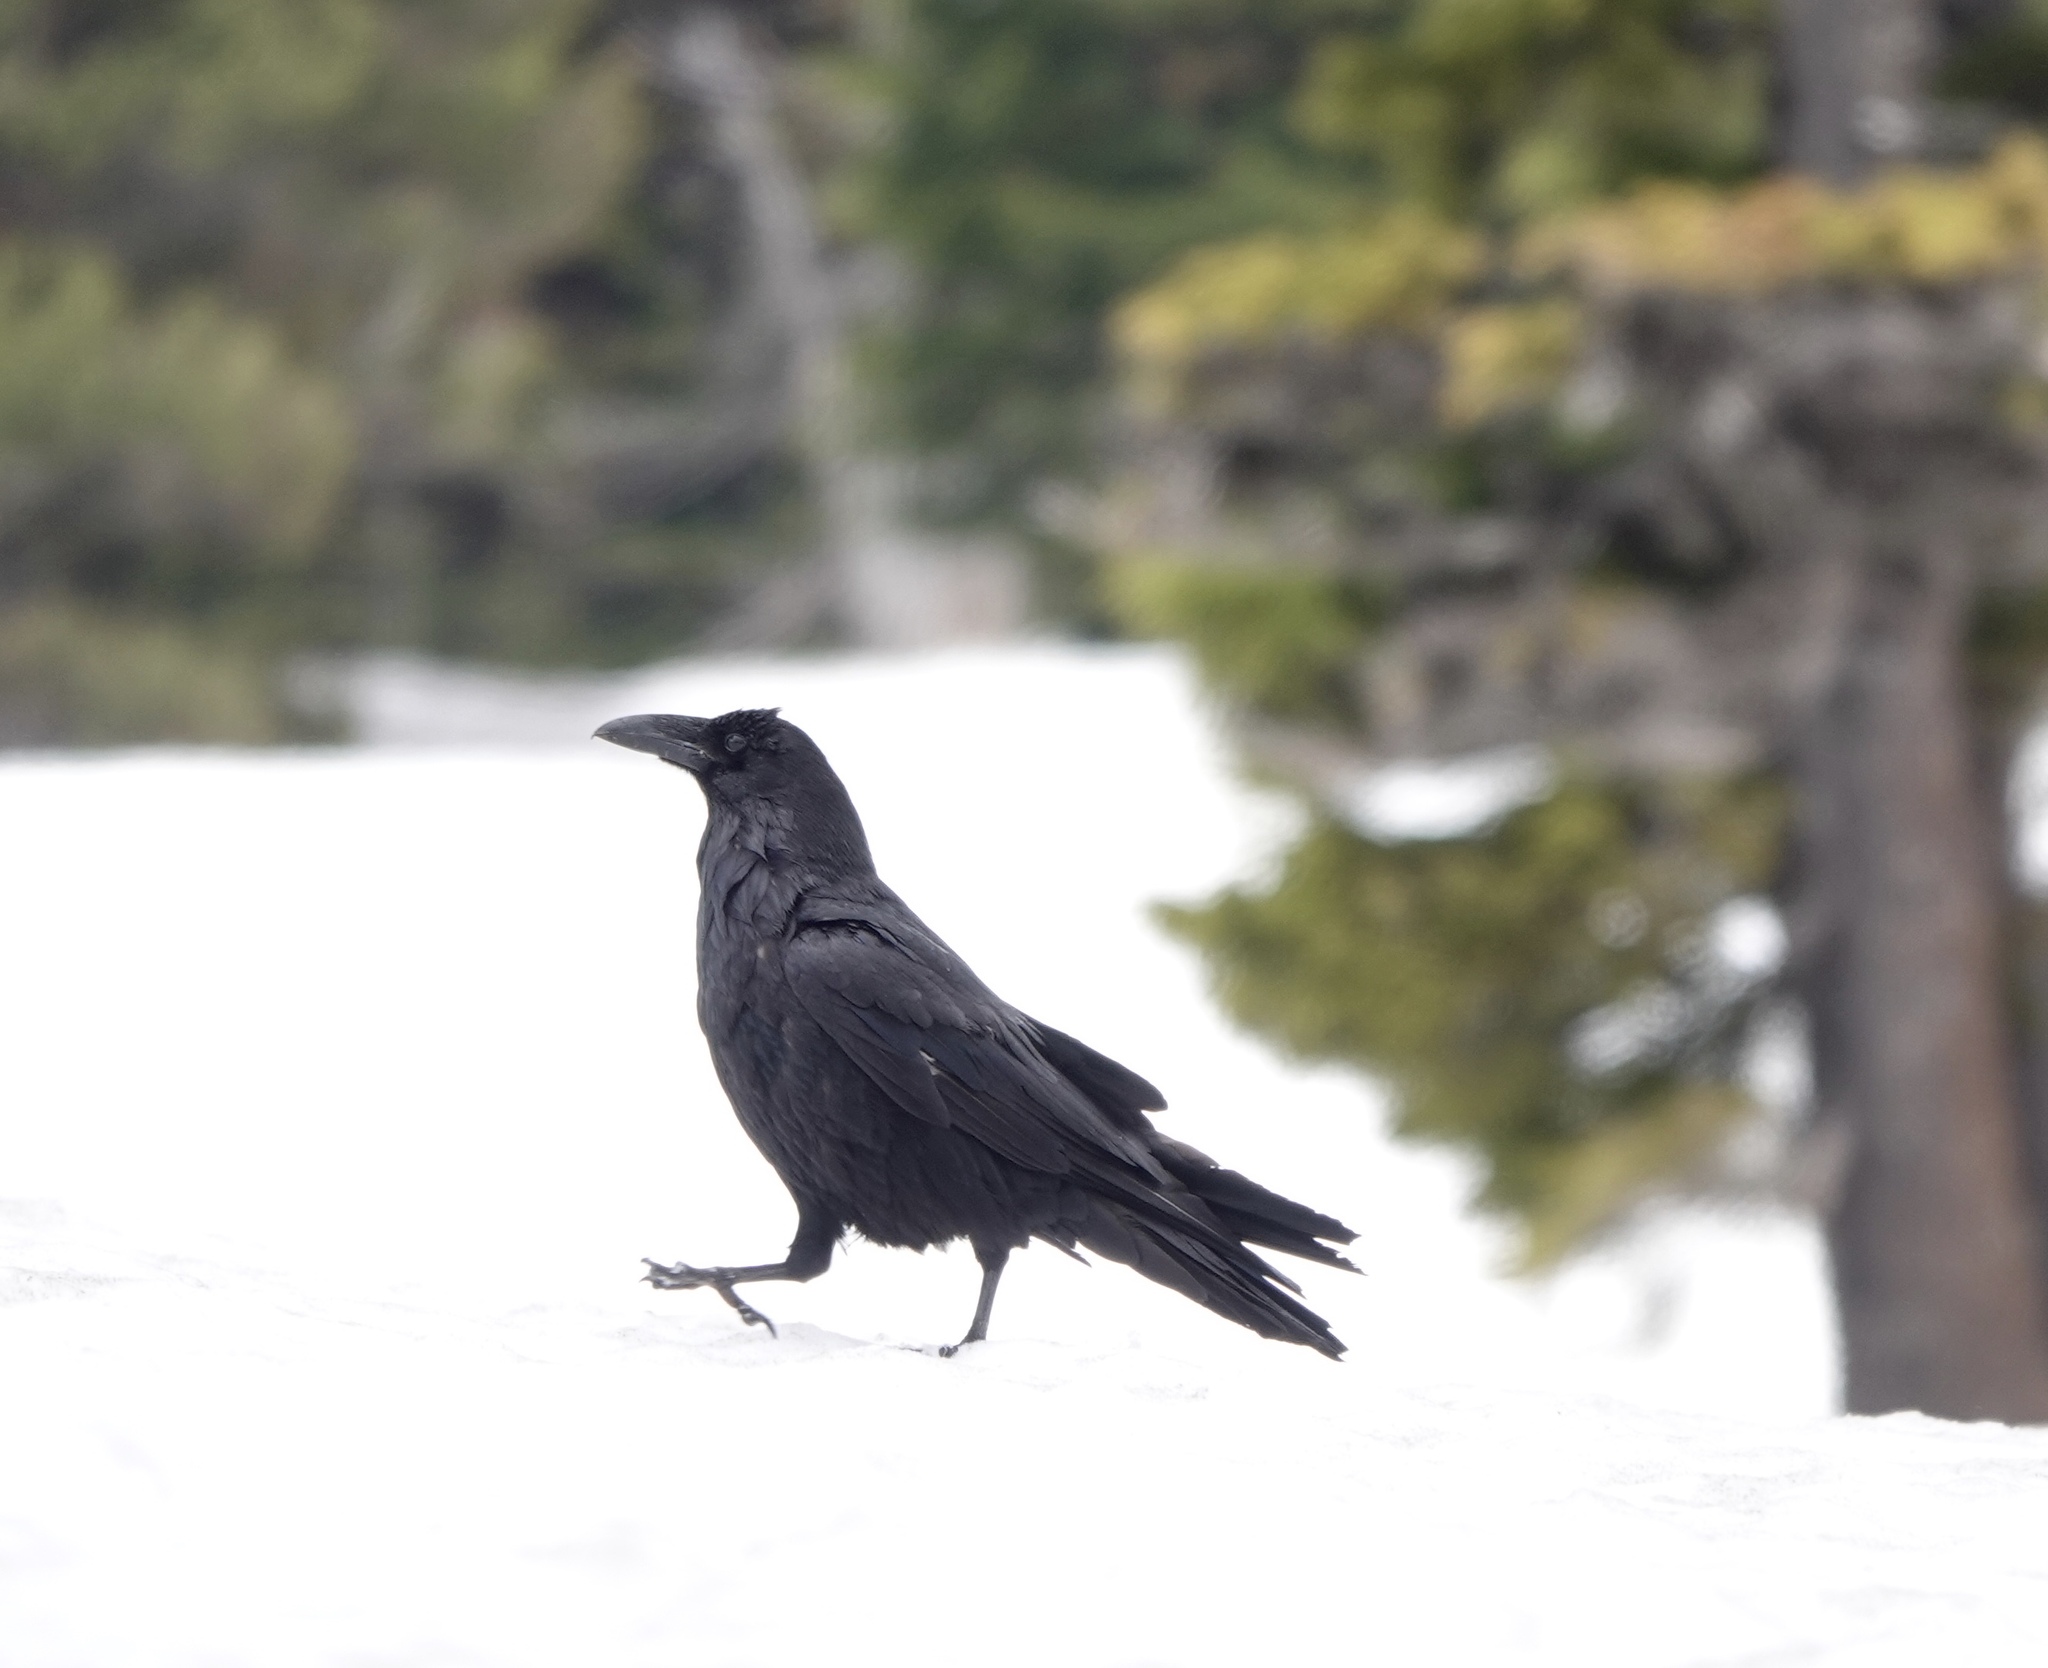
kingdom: Animalia
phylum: Chordata
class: Aves
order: Passeriformes
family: Corvidae
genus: Corvus
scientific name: Corvus corax
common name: Common raven
